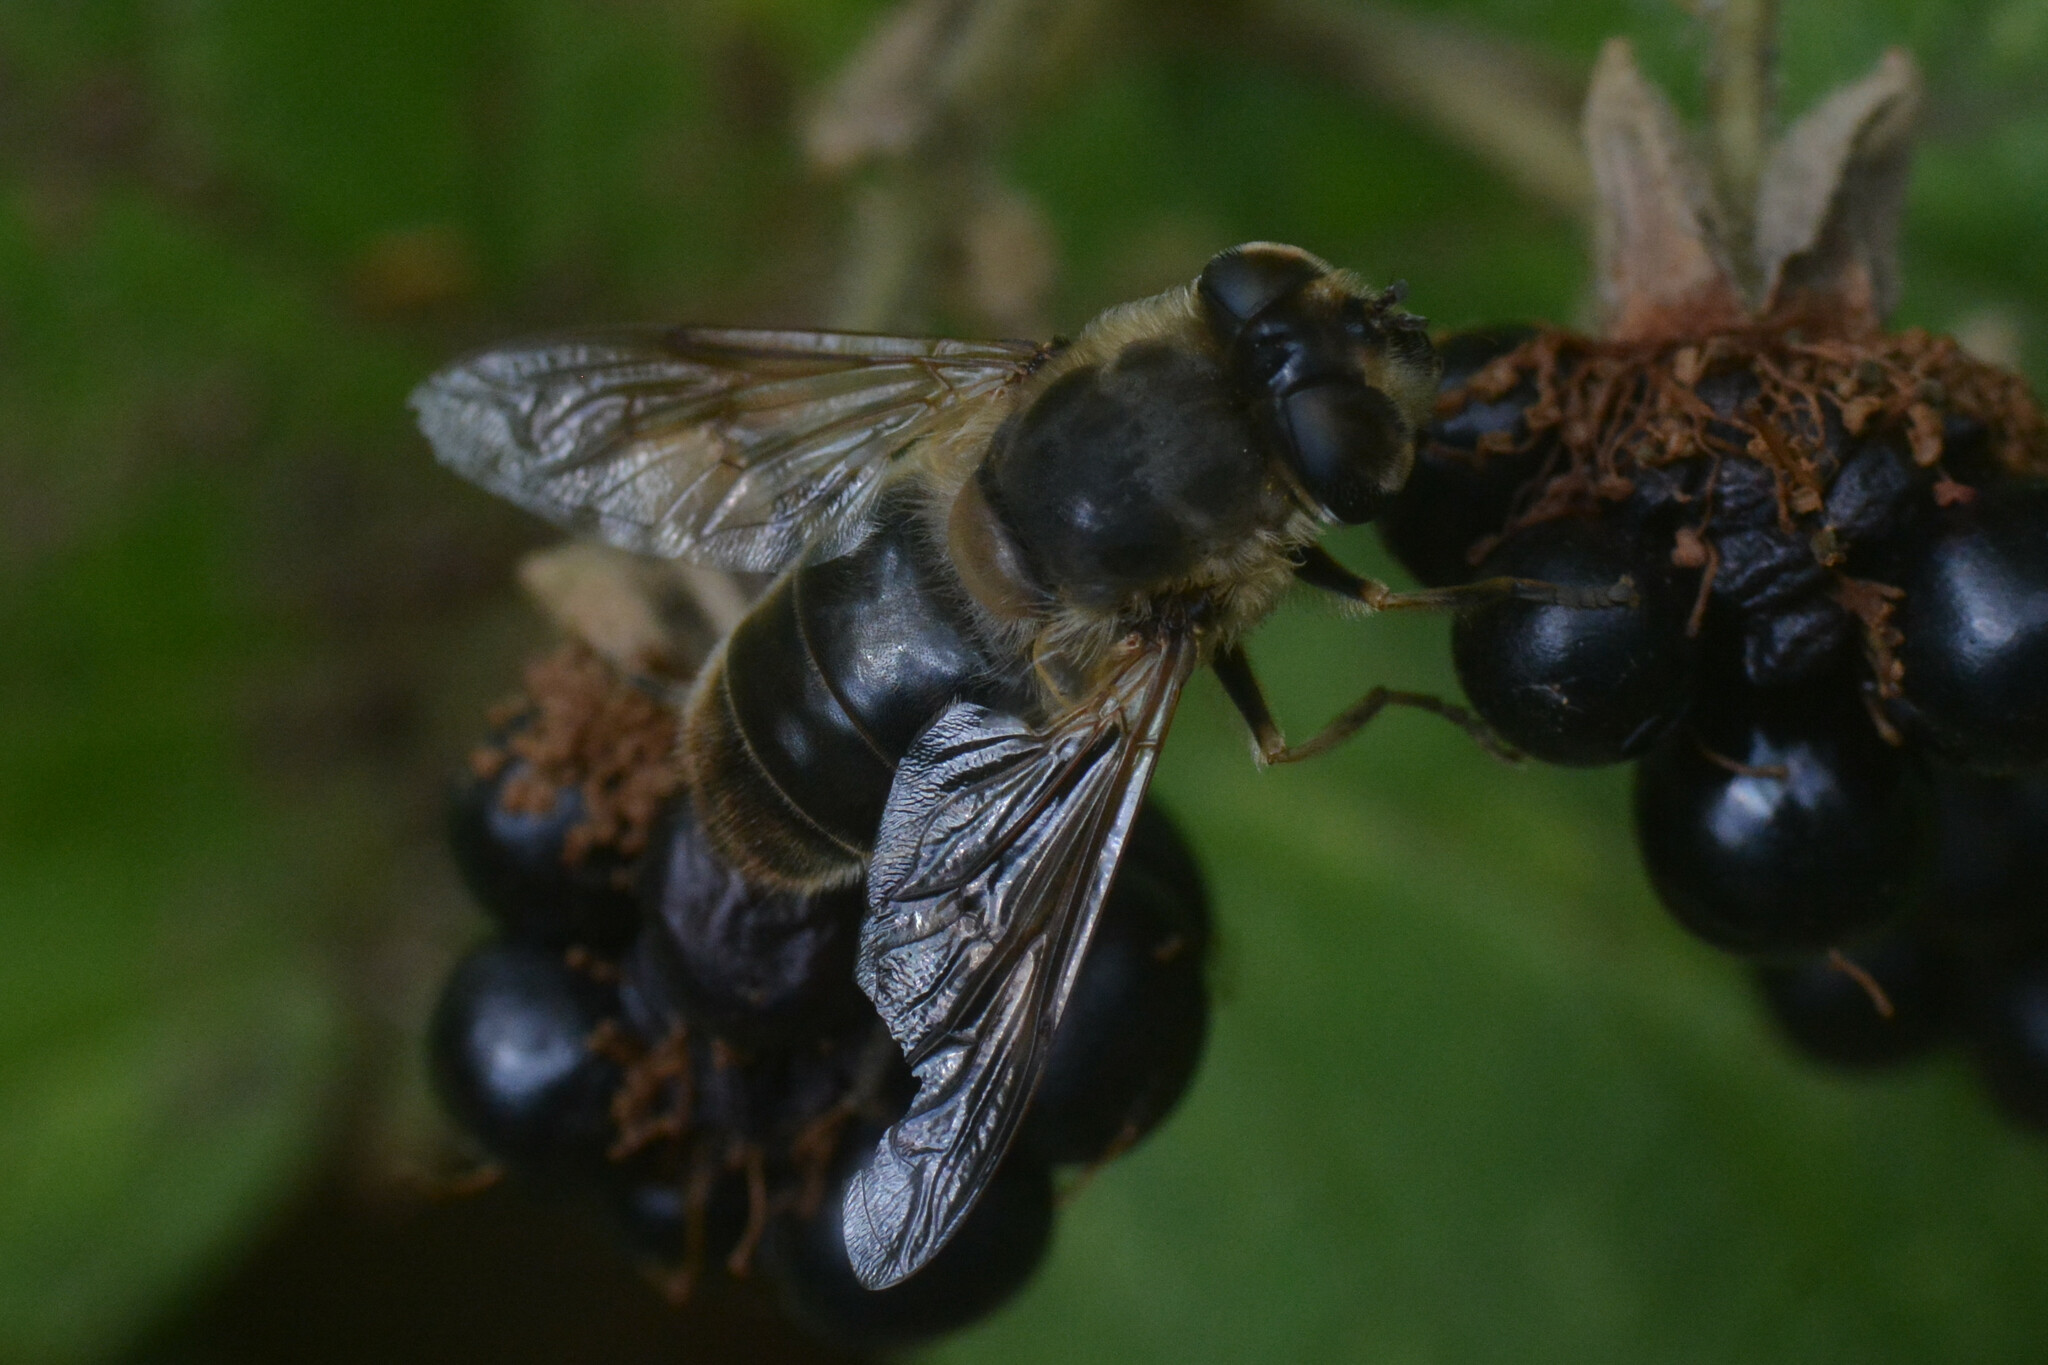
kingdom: Animalia
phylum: Arthropoda
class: Insecta
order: Diptera
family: Syrphidae
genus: Eristalis
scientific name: Eristalis tenax
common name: Drone fly
